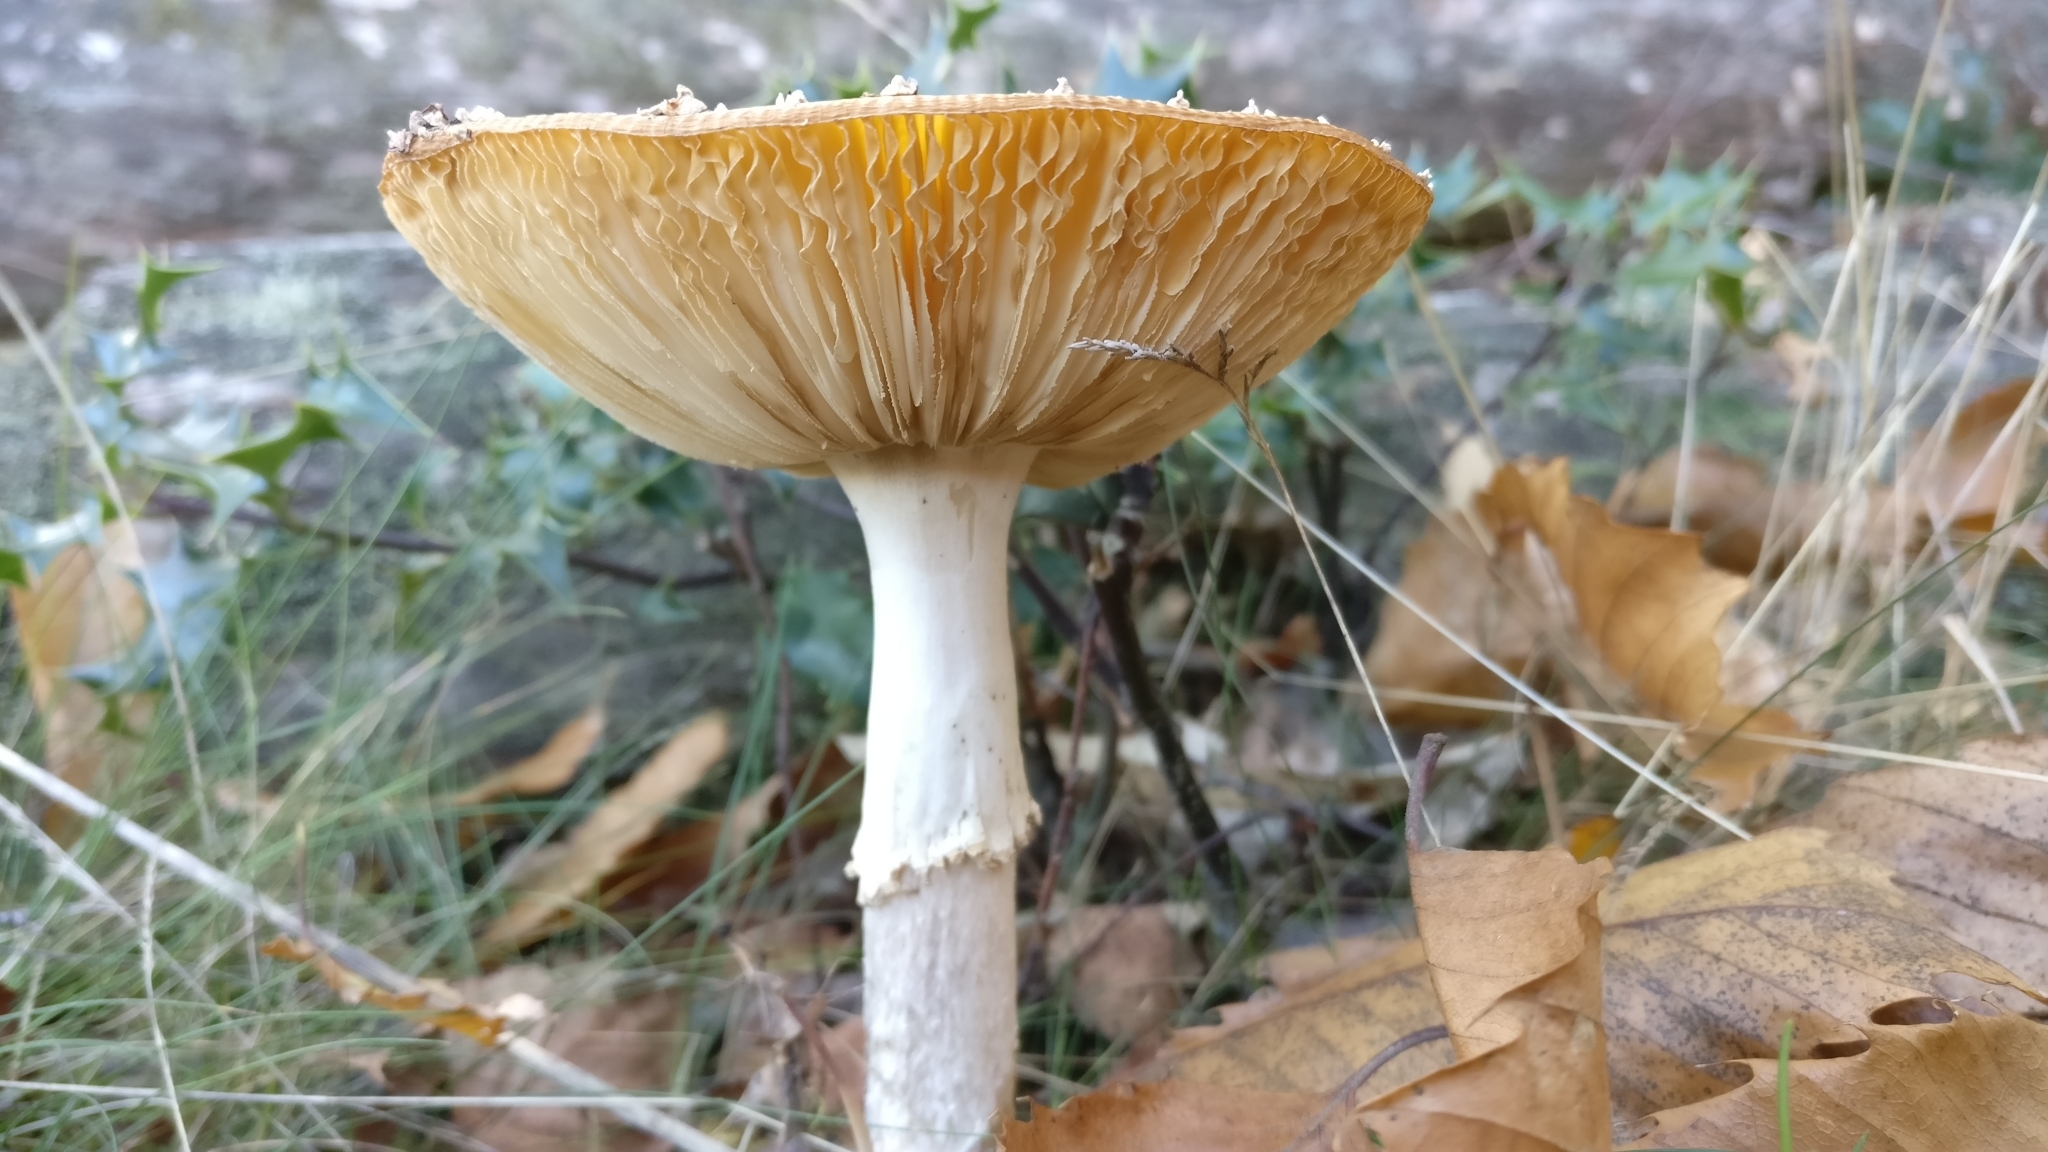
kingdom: Fungi
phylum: Basidiomycota
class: Agaricomycetes
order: Agaricales
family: Amanitaceae
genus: Amanita
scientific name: Amanita muscaria
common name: Fly agaric
